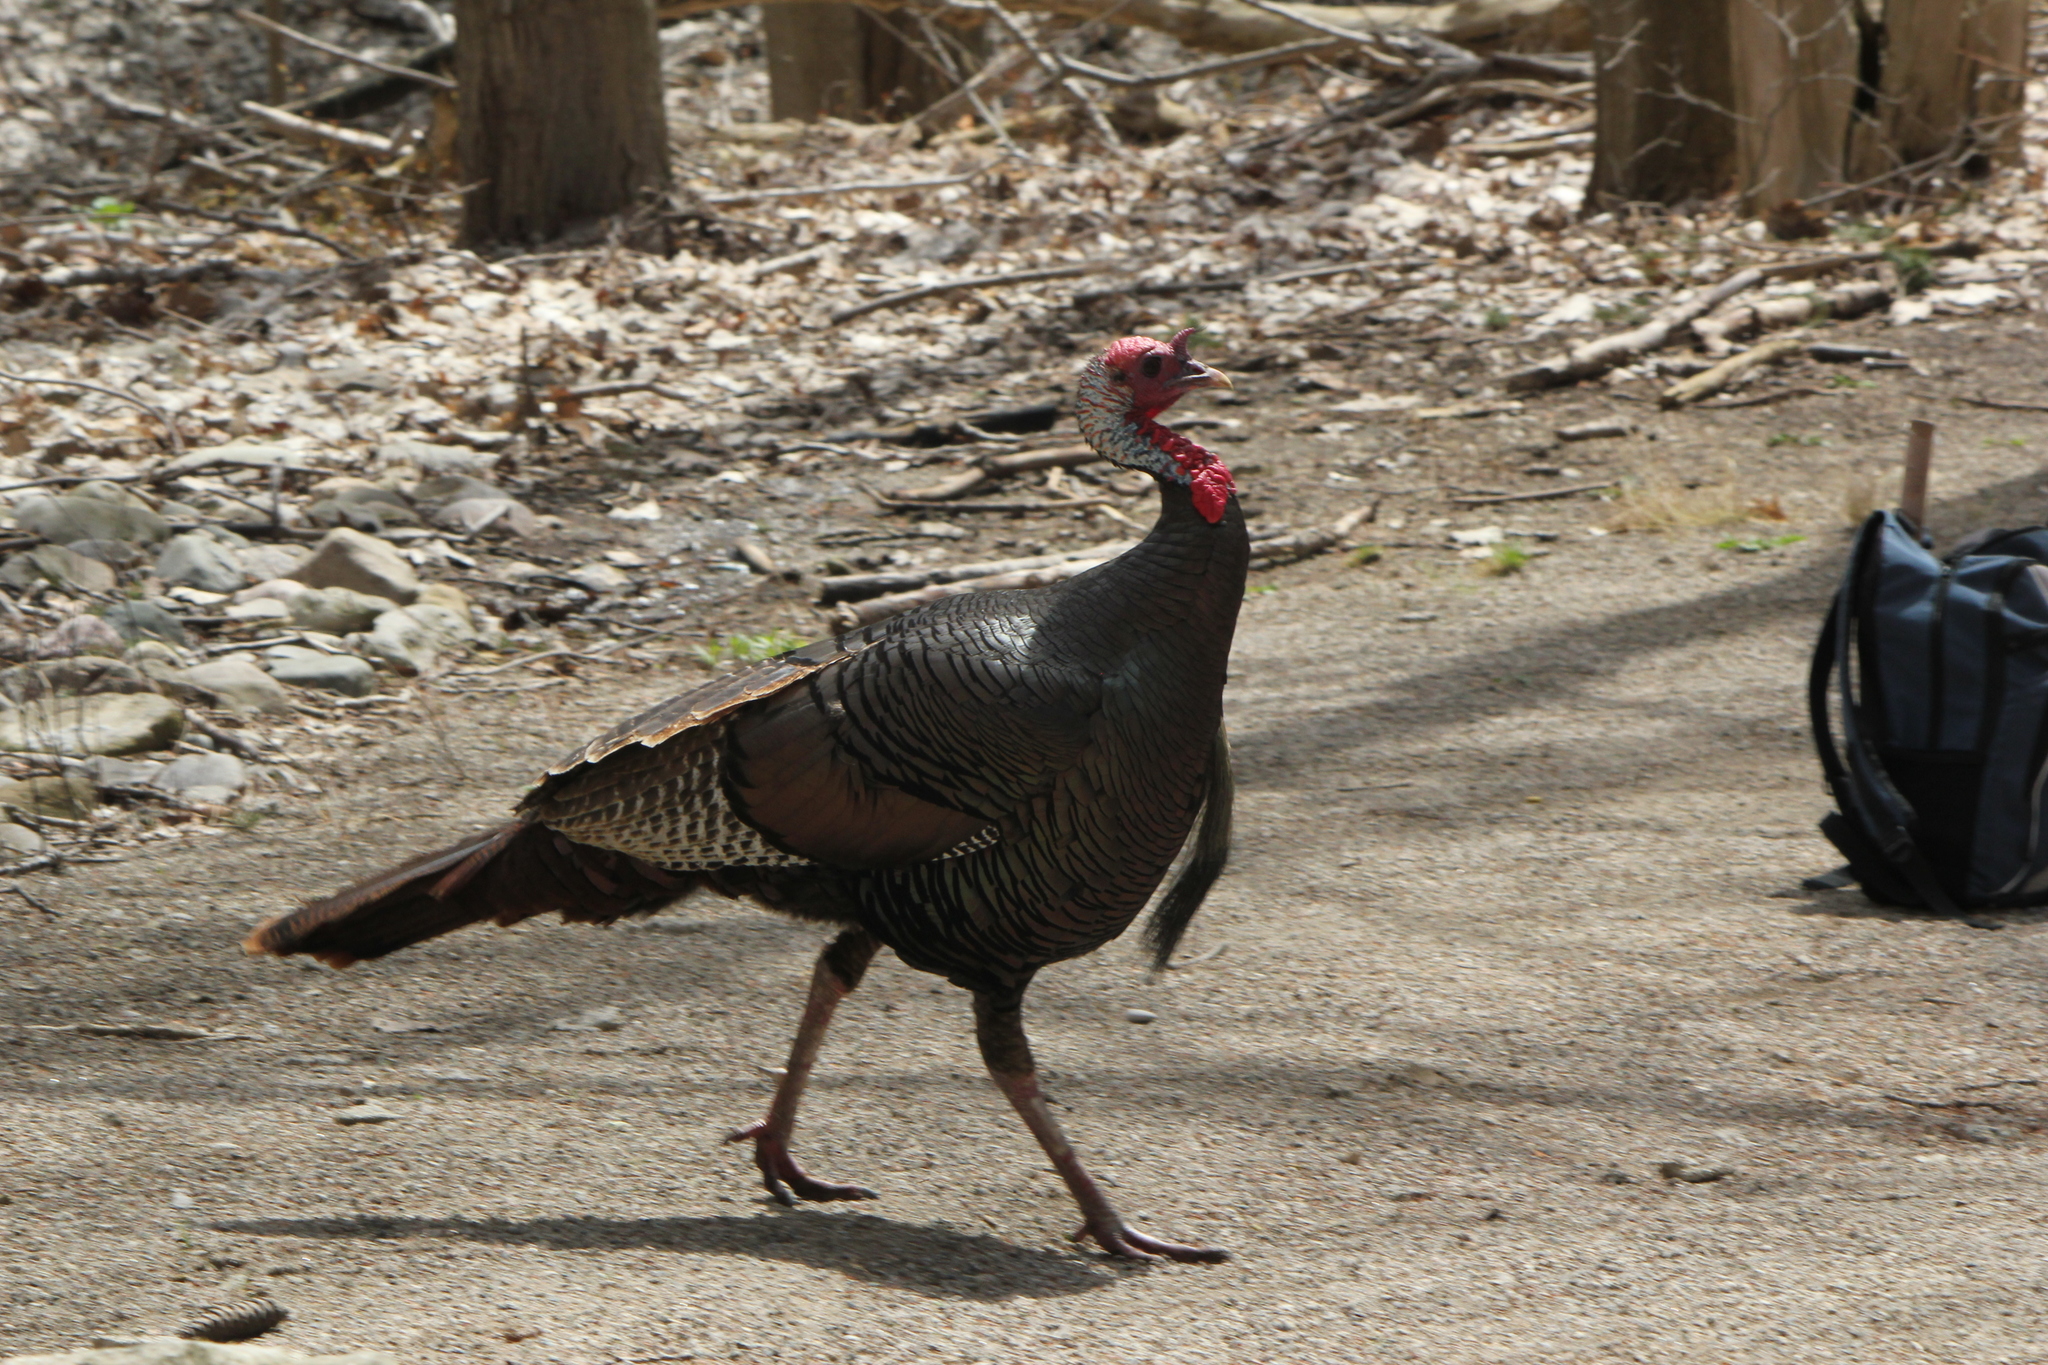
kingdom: Animalia
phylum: Chordata
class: Aves
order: Galliformes
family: Phasianidae
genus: Meleagris
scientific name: Meleagris gallopavo
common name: Wild turkey
